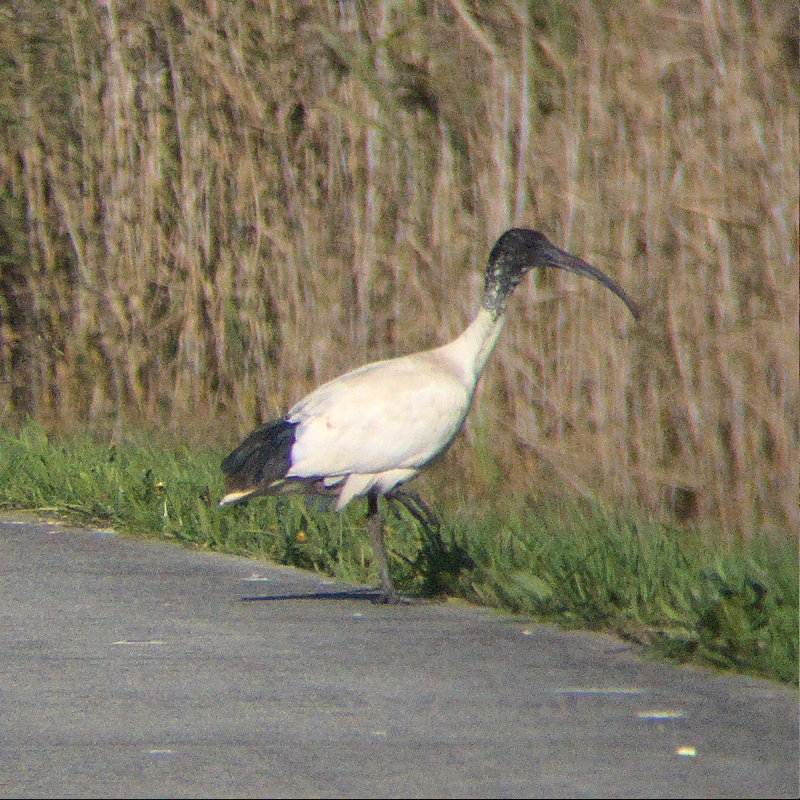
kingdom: Animalia
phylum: Chordata
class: Aves
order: Pelecaniformes
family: Threskiornithidae
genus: Threskiornis
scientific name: Threskiornis molucca
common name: Australian white ibis
